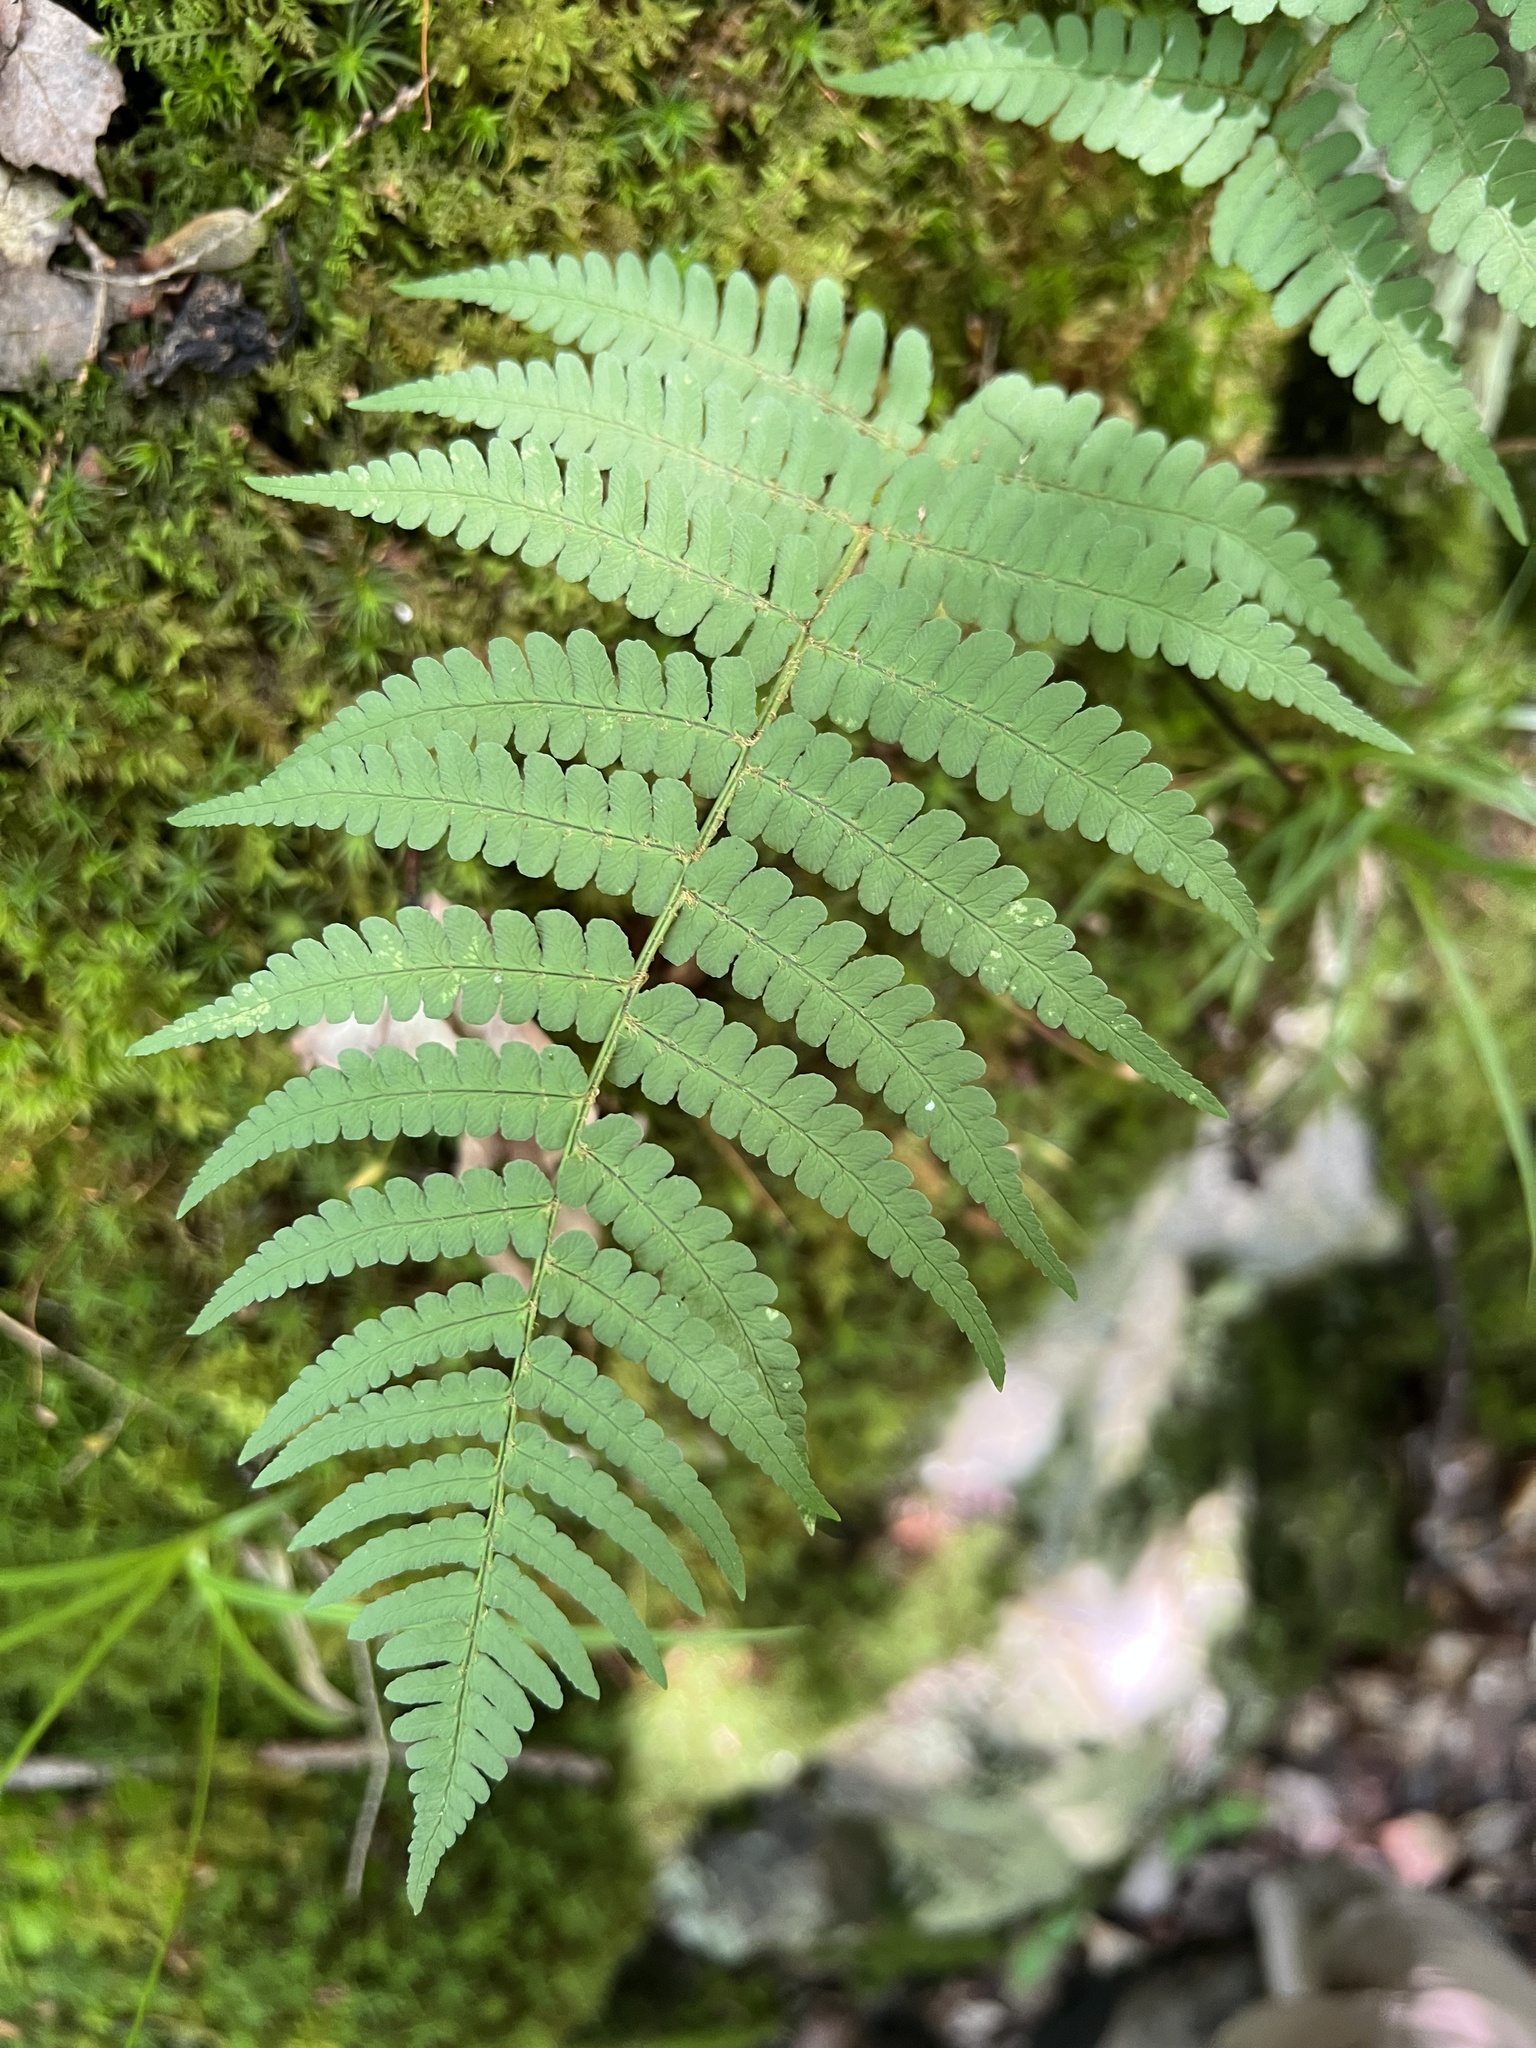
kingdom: Plantae
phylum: Tracheophyta
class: Polypodiopsida
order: Polypodiales
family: Dryopteridaceae
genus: Dryopteris
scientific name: Dryopteris marginalis
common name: Marginal wood fern
